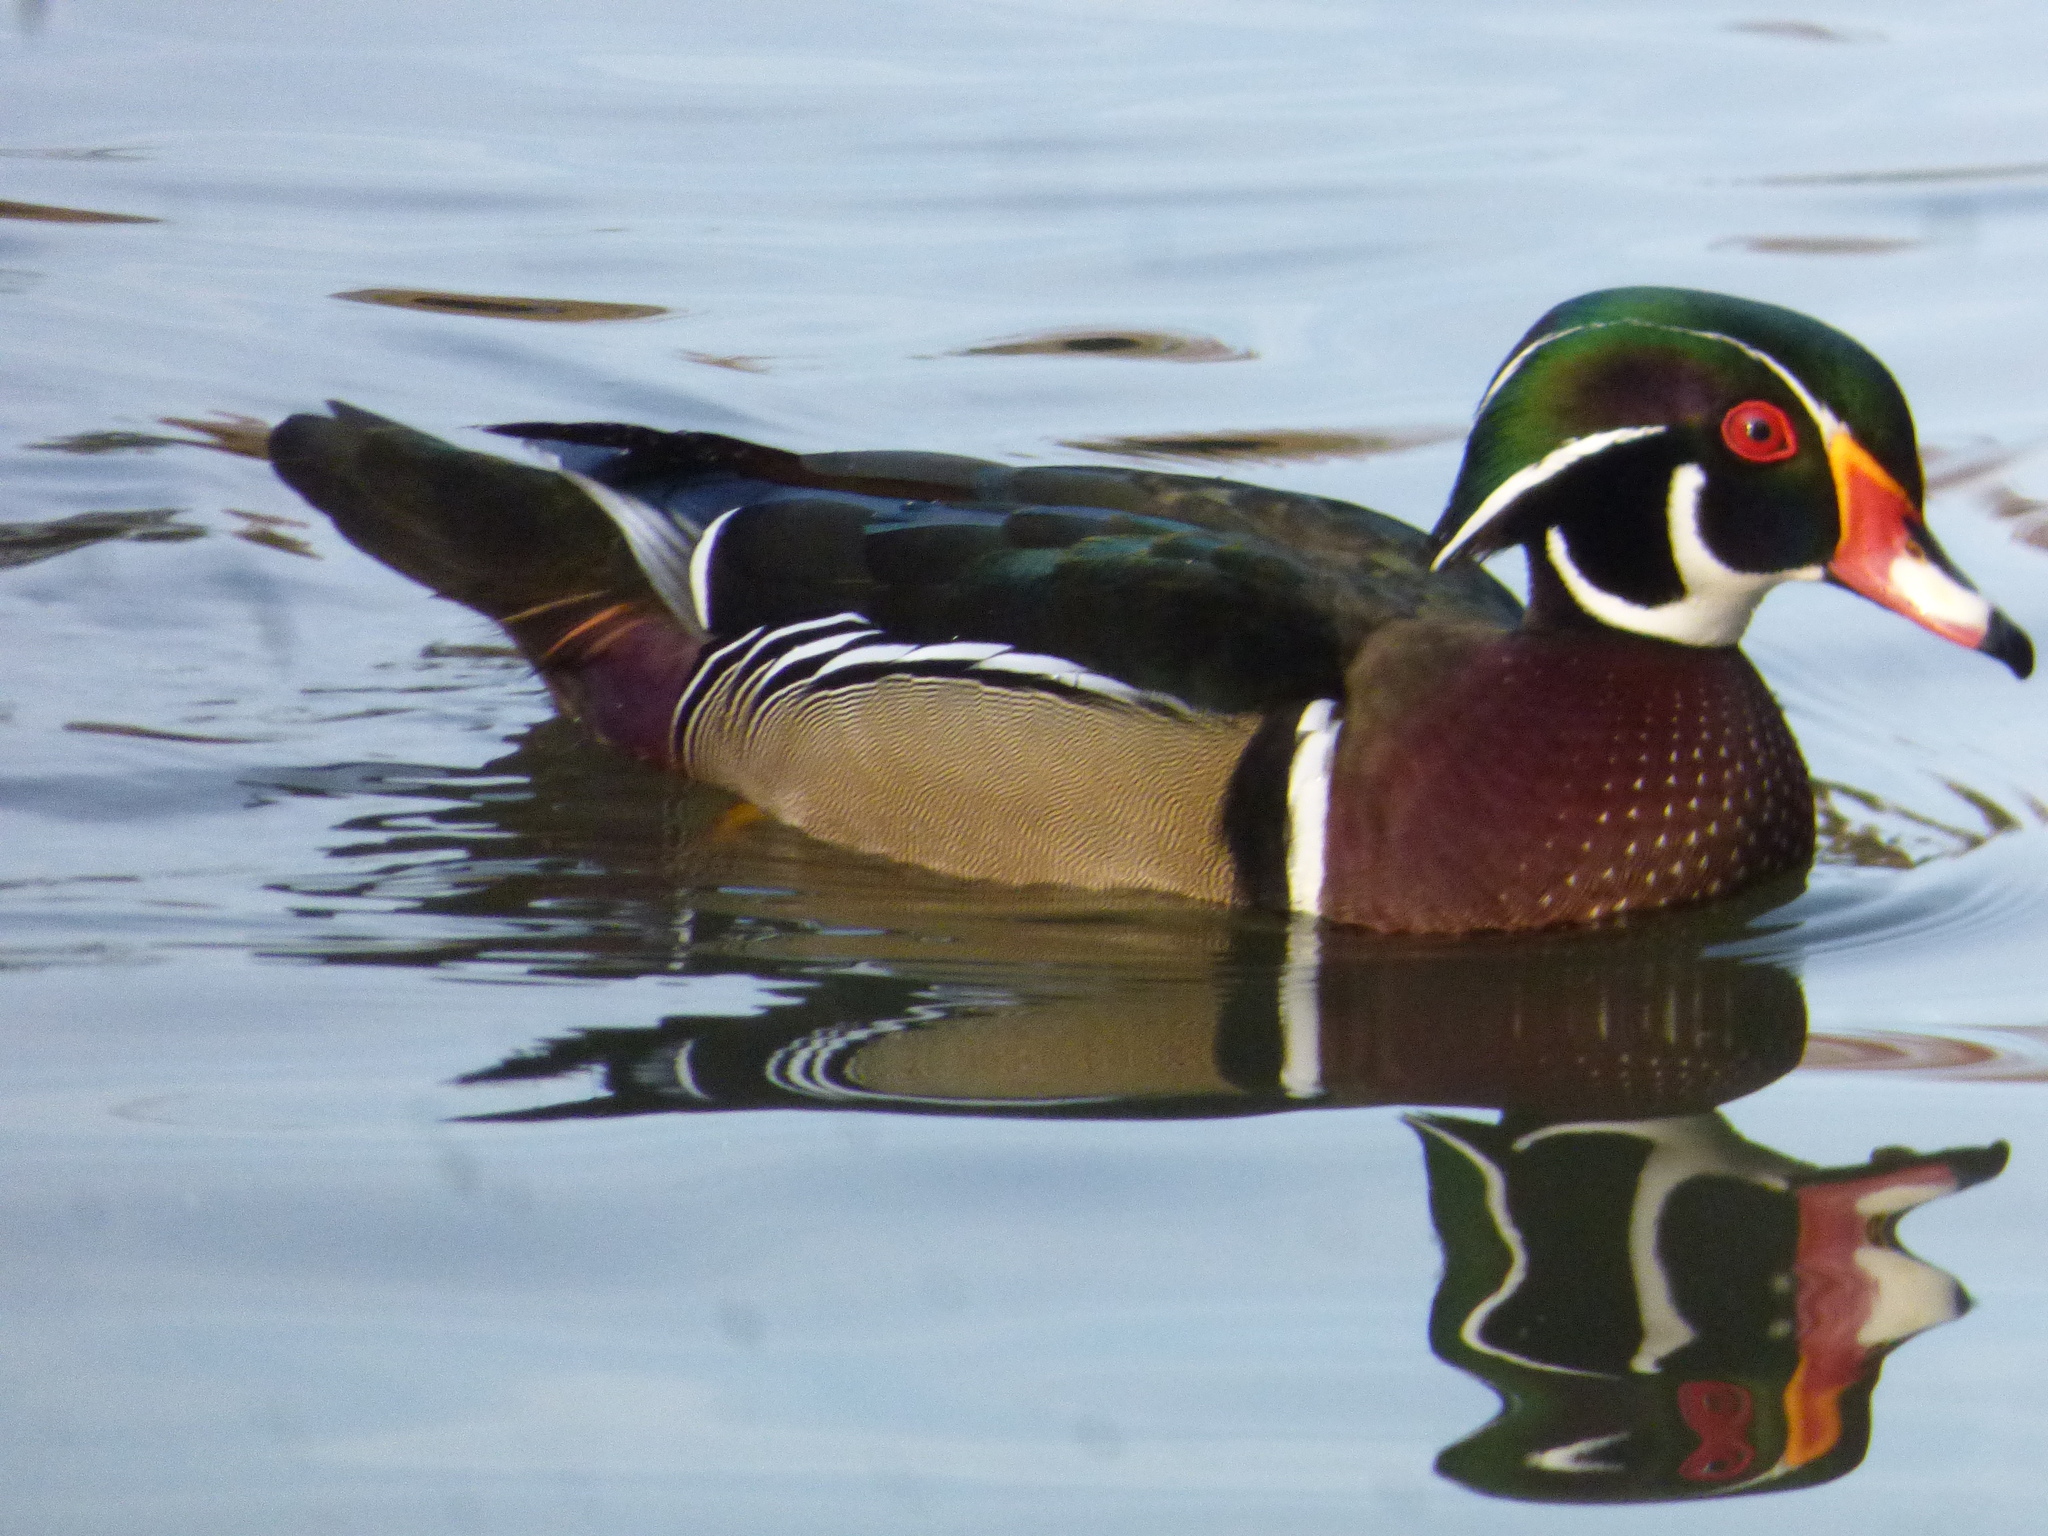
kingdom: Animalia
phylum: Chordata
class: Aves
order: Anseriformes
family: Anatidae
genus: Aix
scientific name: Aix sponsa
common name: Wood duck
